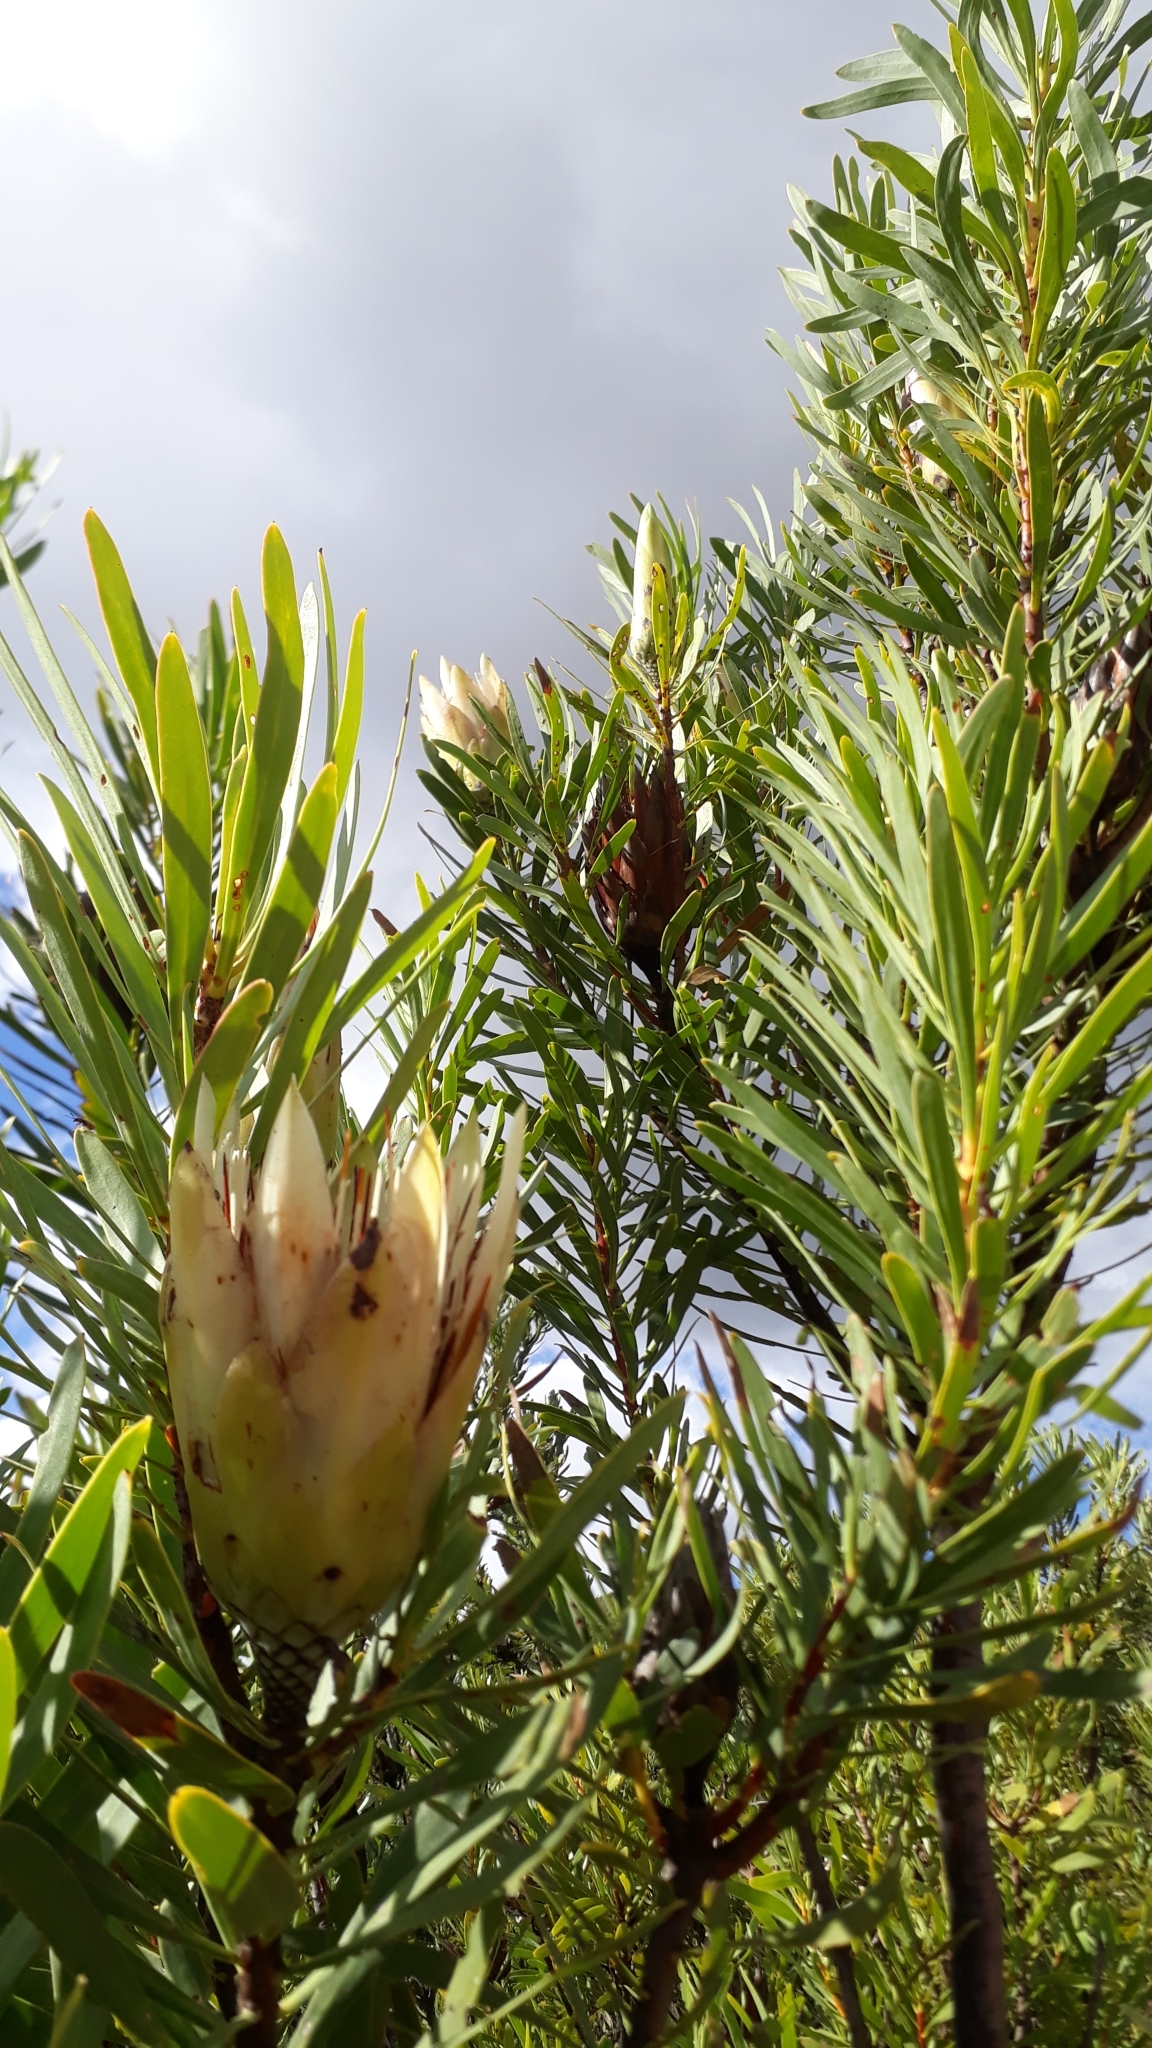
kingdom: Plantae
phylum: Tracheophyta
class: Magnoliopsida
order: Proteales
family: Proteaceae
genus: Protea
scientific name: Protea repens
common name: Sugarbush
